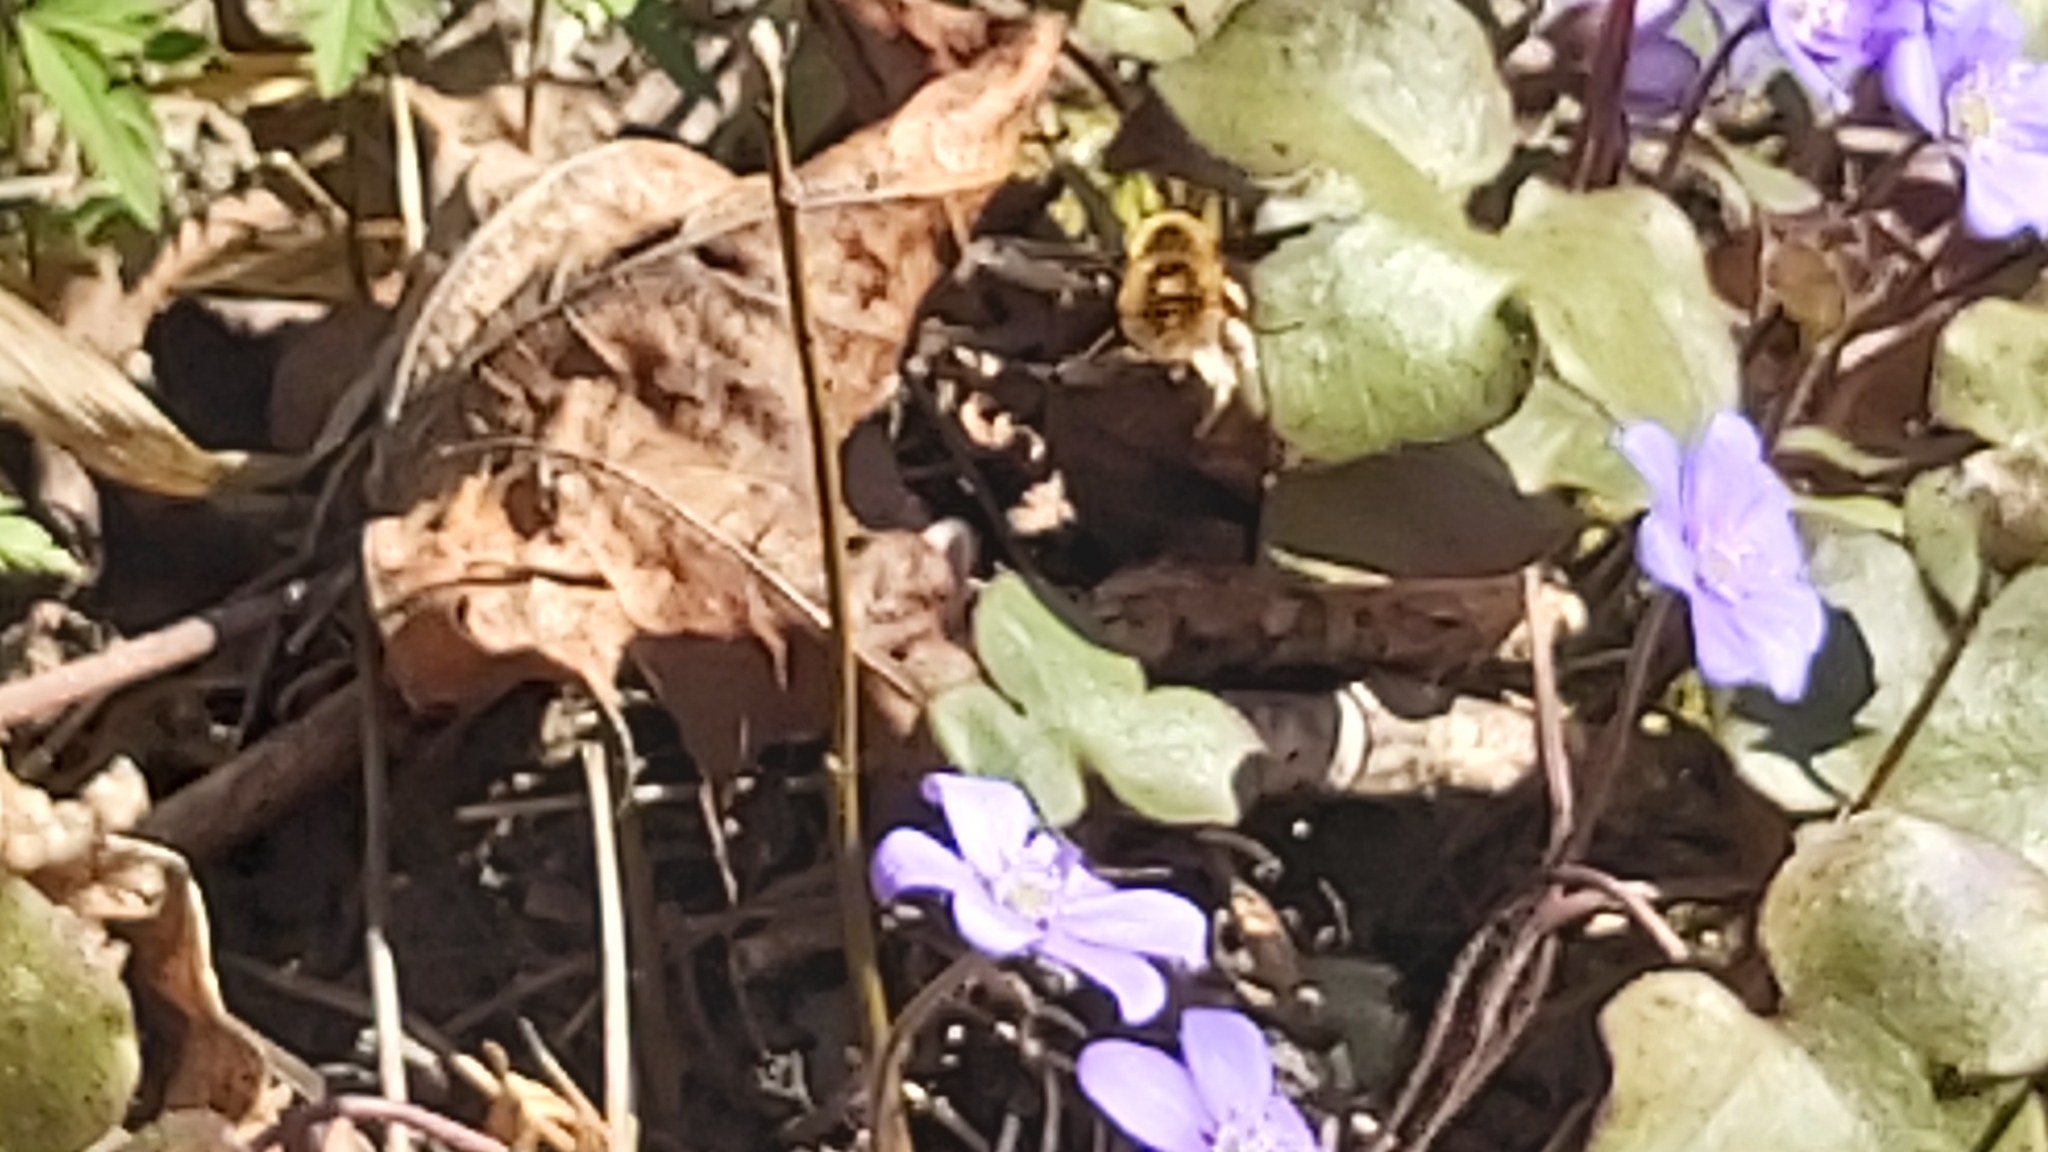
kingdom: Animalia
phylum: Arthropoda
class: Insecta
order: Diptera
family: Bombyliidae
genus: Bombylius
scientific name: Bombylius major
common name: Bee fly
